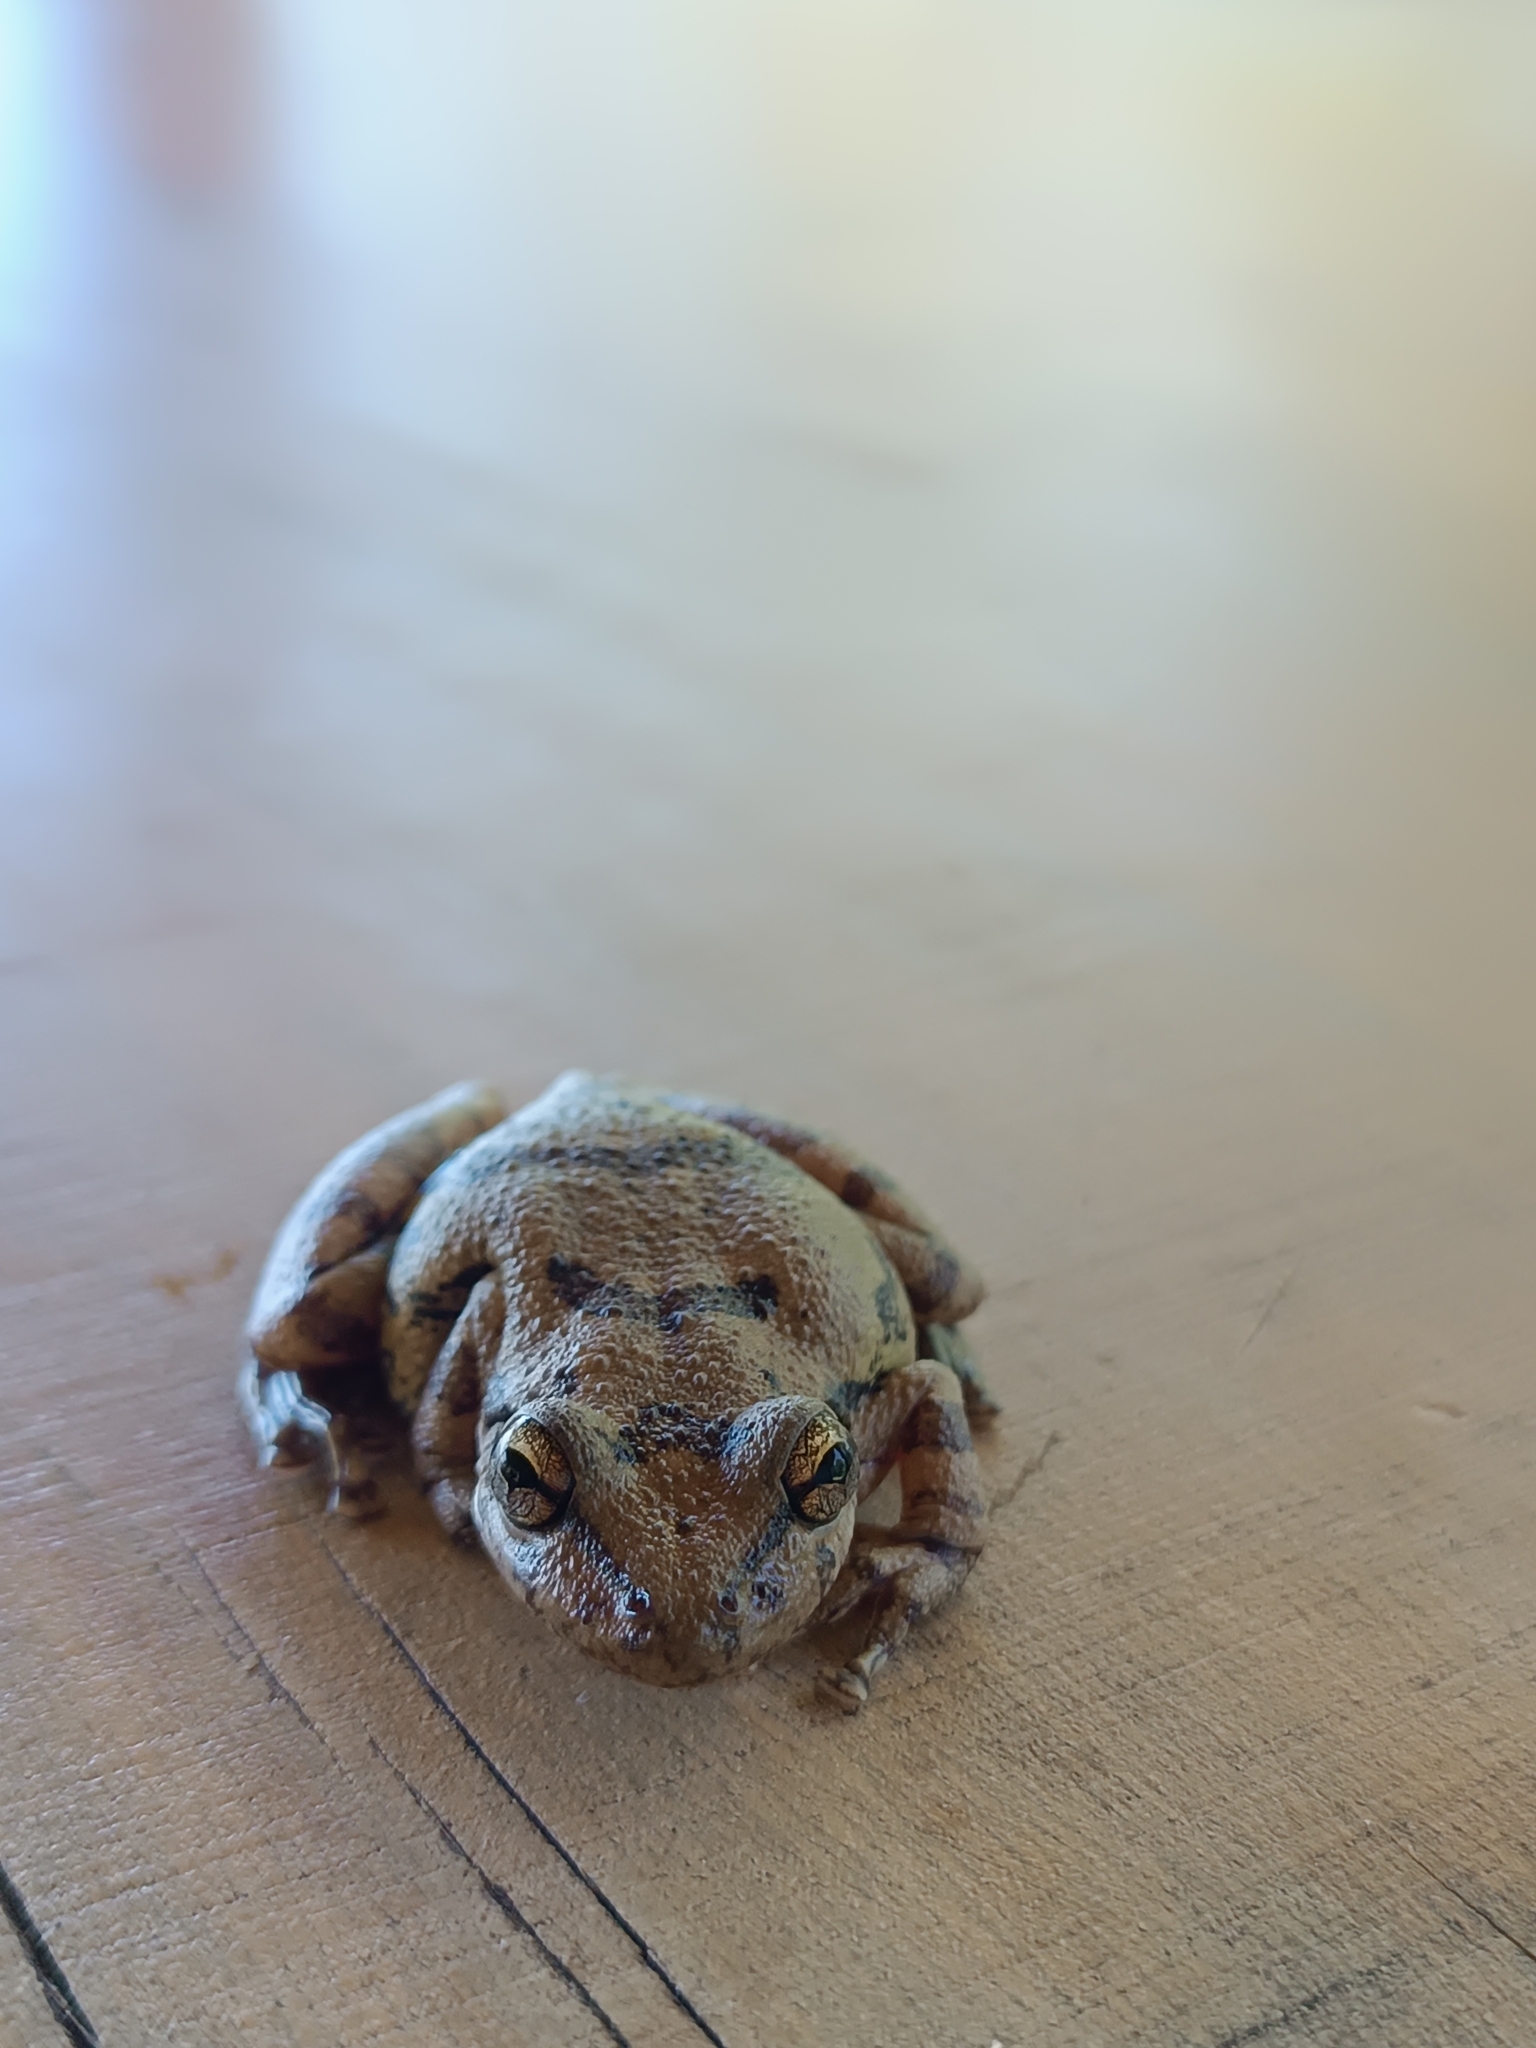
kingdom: Animalia
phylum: Chordata
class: Amphibia
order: Anura
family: Hylidae
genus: Scinax
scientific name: Scinax fuscovarius
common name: Fuscous-blotched treefrog
